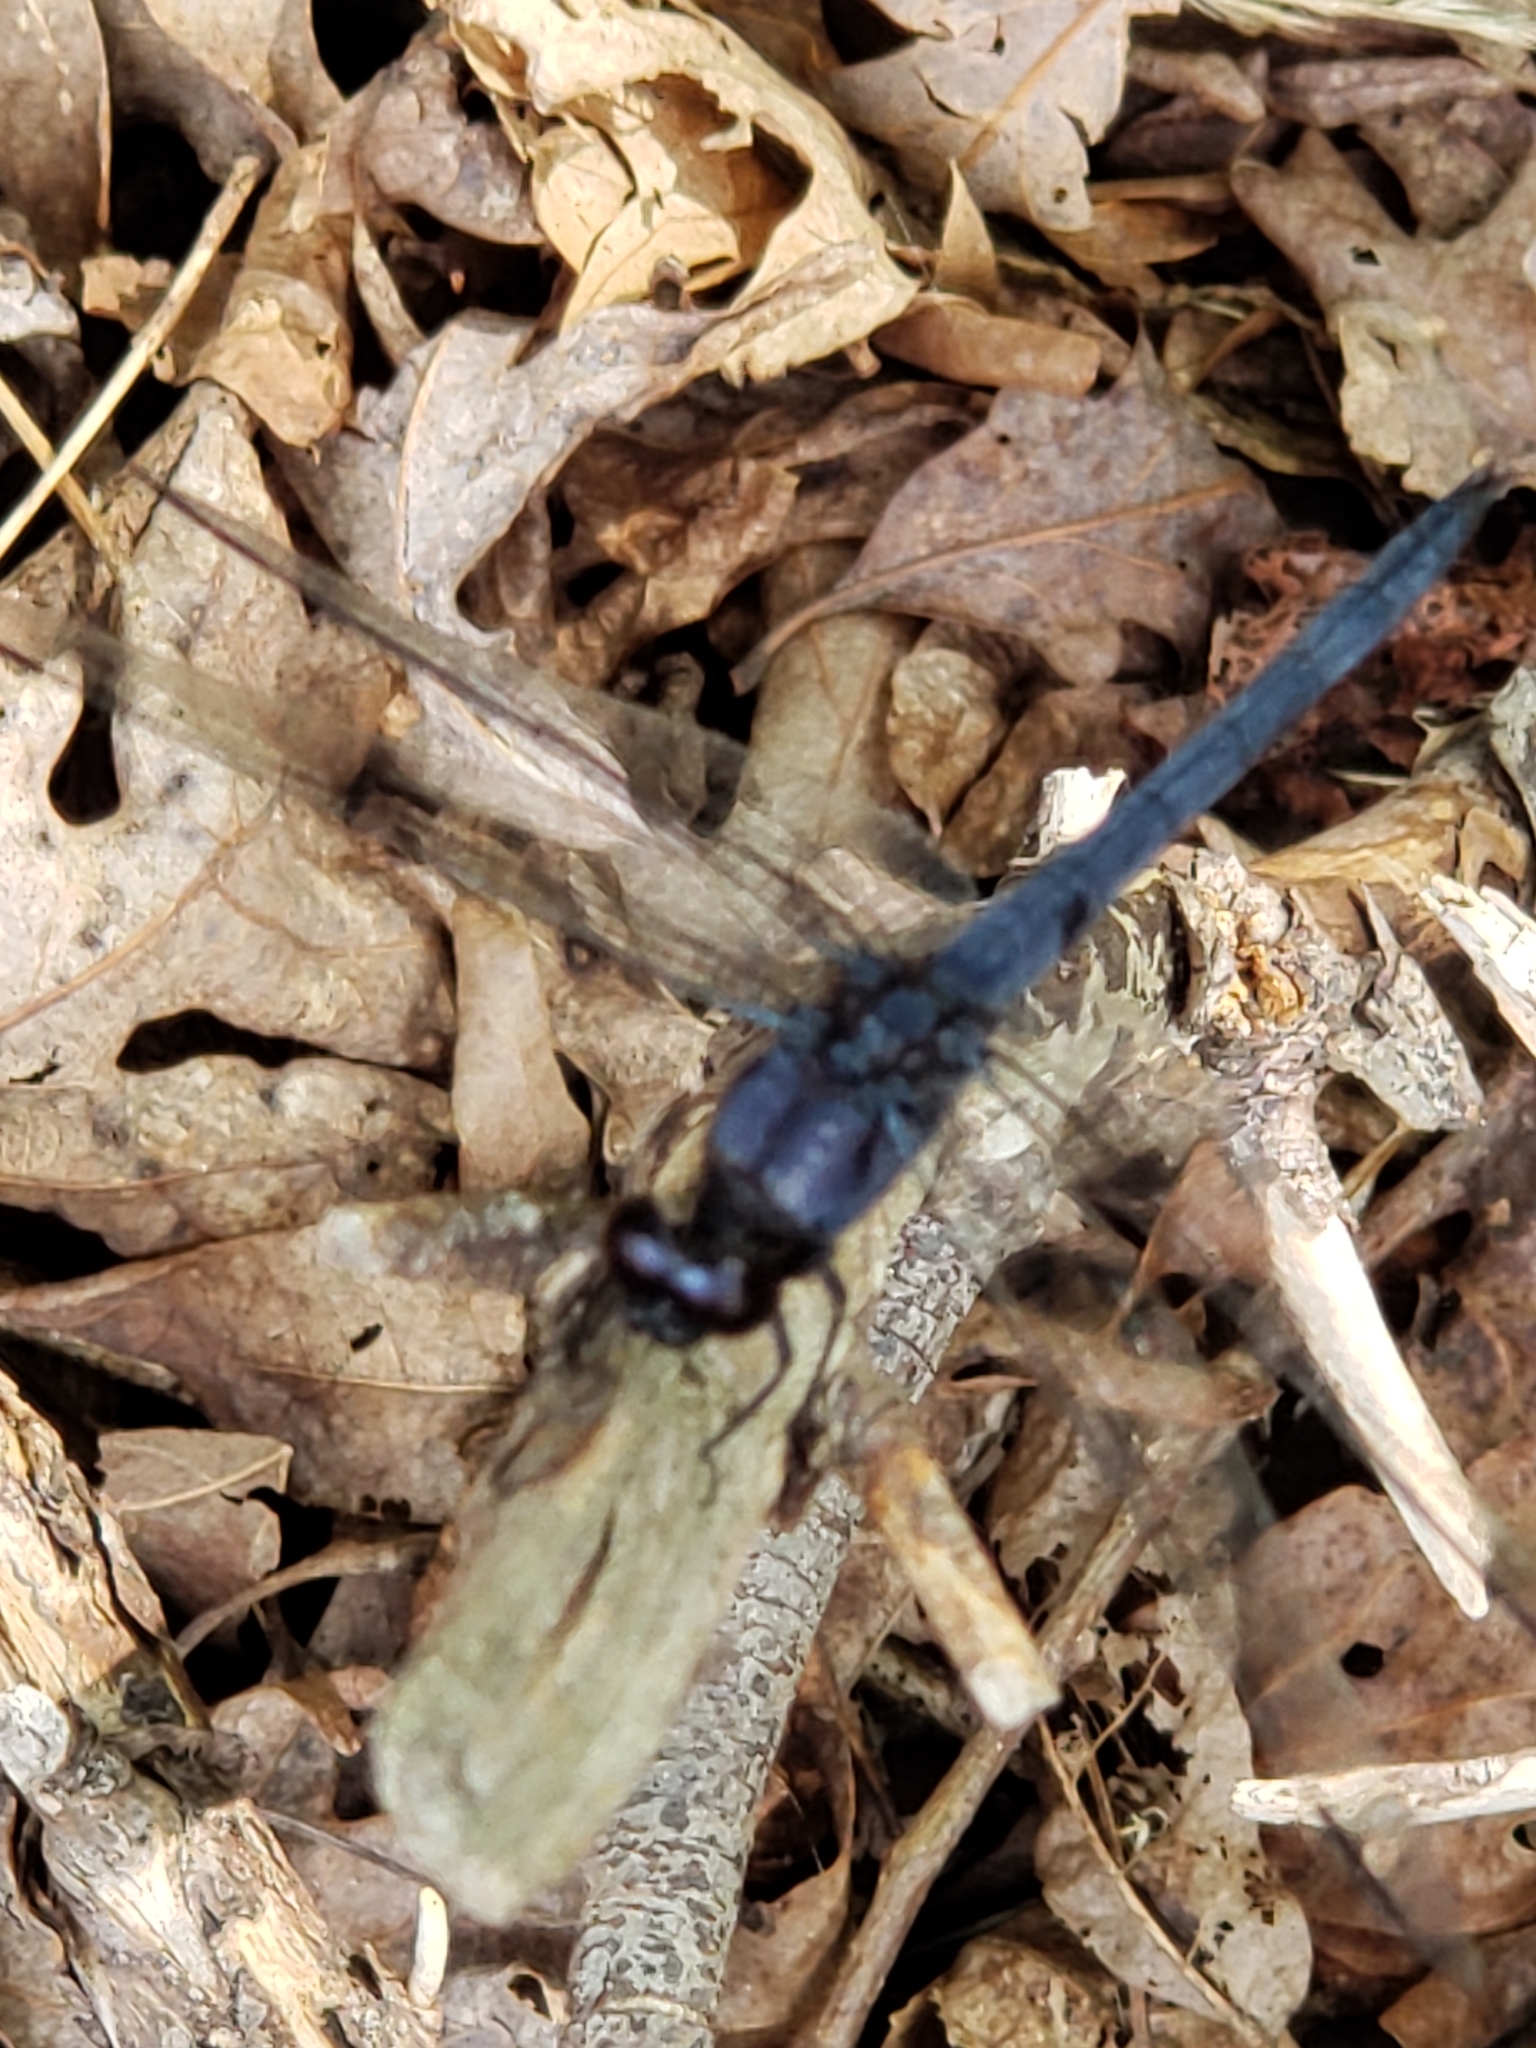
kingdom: Animalia
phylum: Arthropoda
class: Insecta
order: Odonata
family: Libellulidae
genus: Pachydiplax
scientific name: Pachydiplax longipennis
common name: Blue dasher
